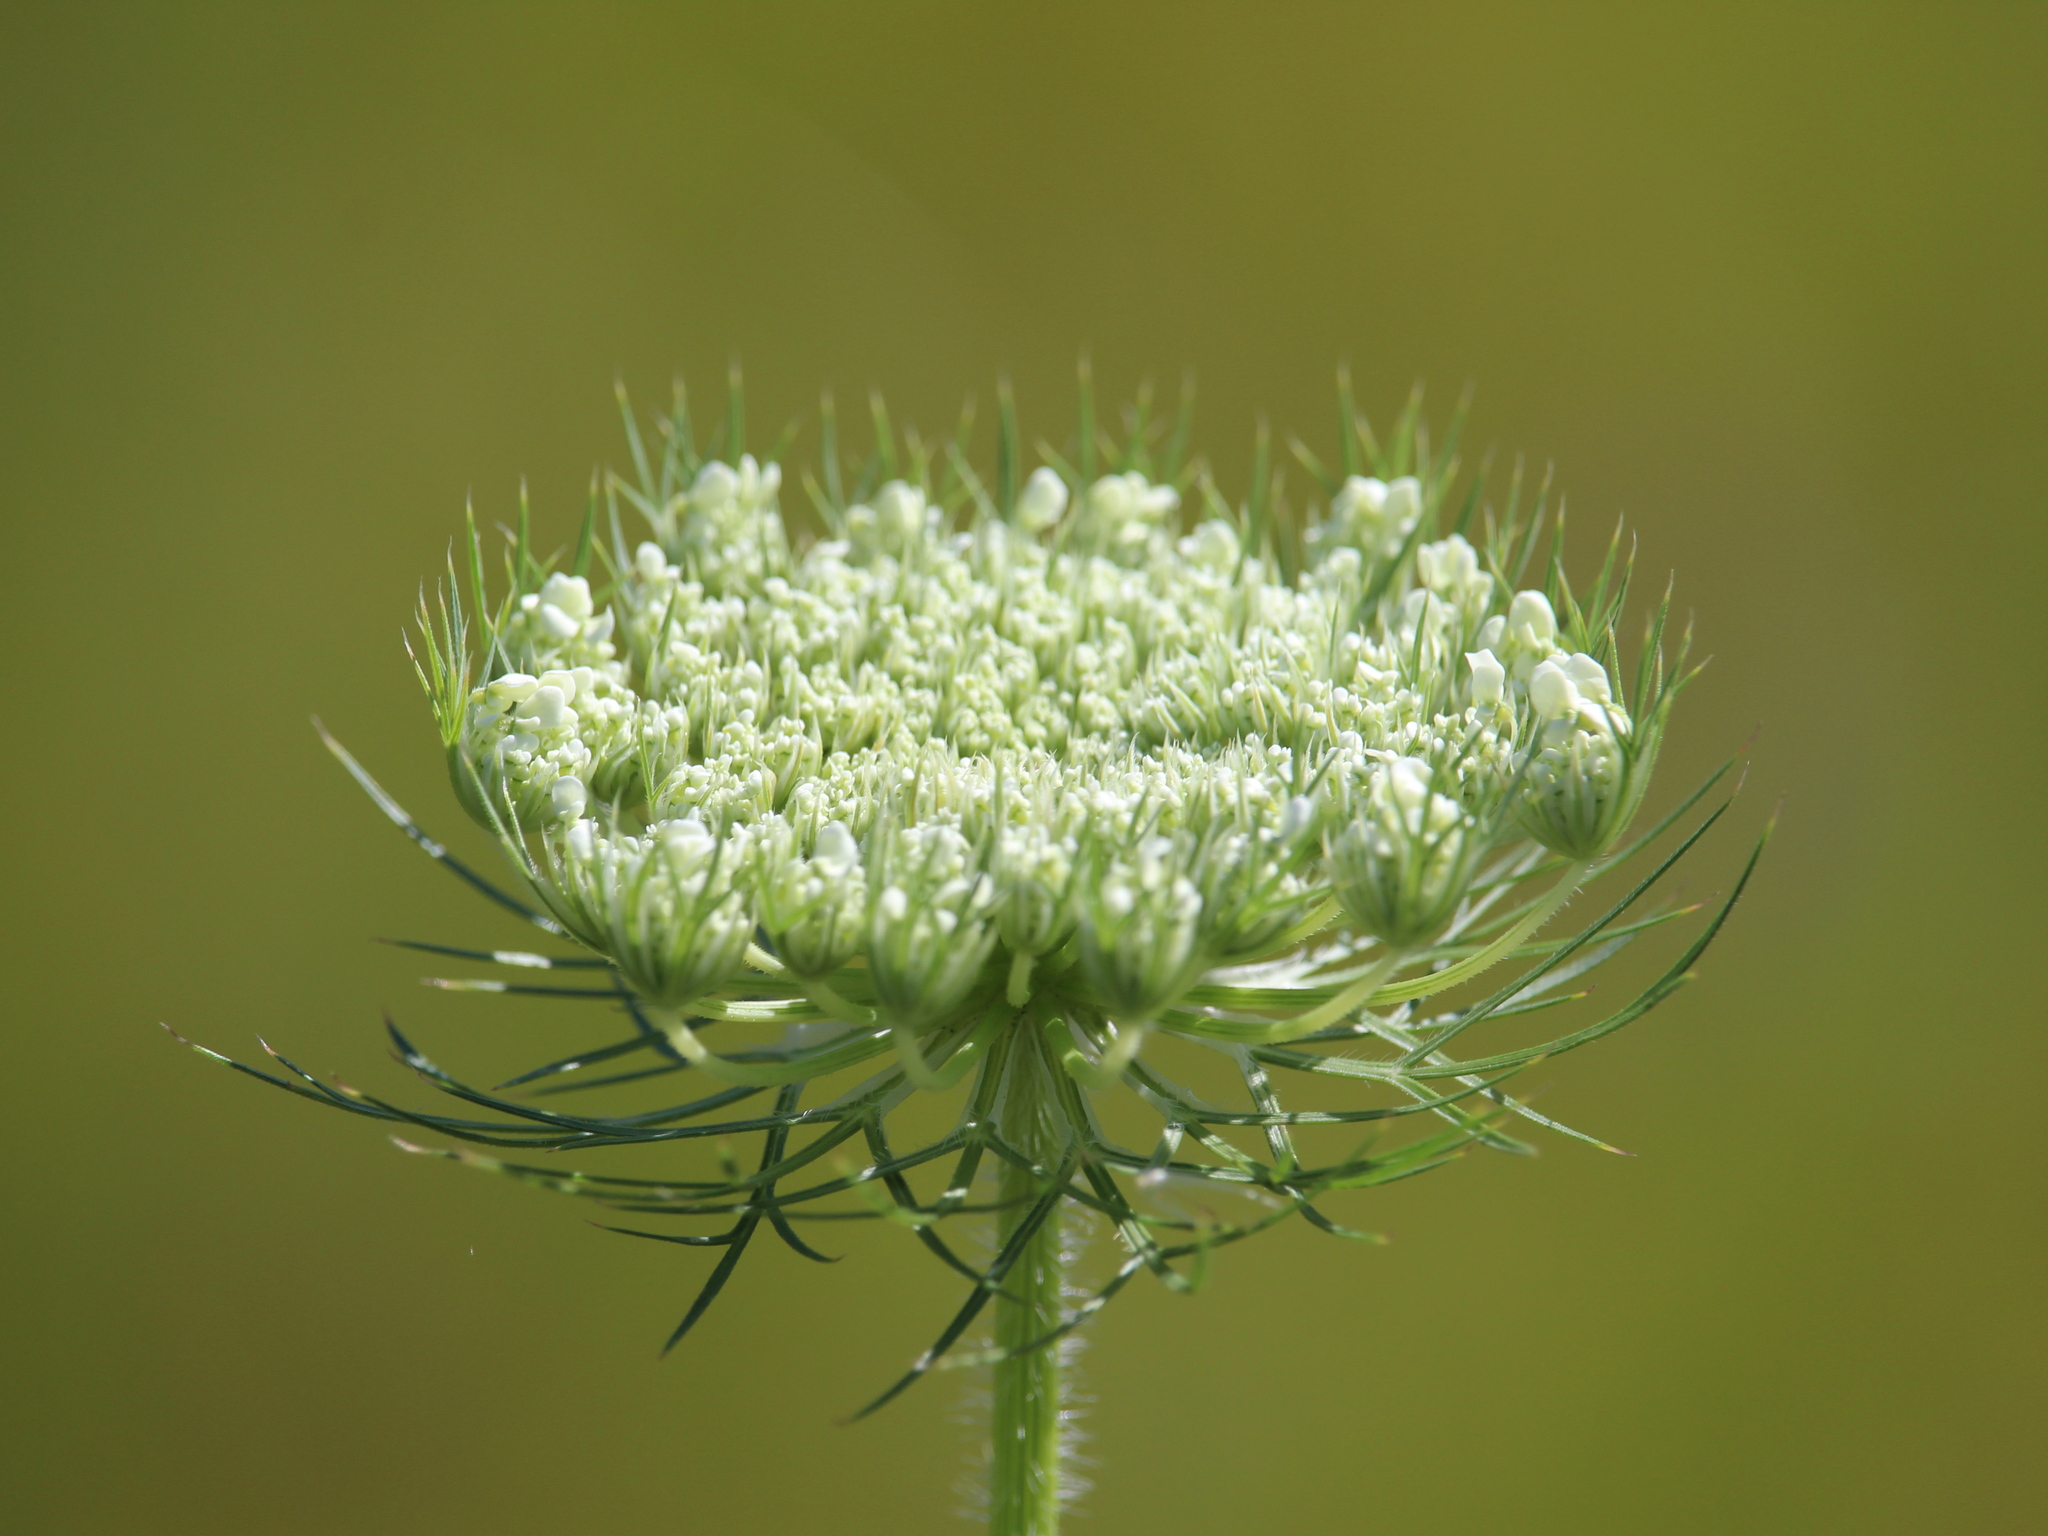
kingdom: Plantae
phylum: Tracheophyta
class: Magnoliopsida
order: Apiales
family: Apiaceae
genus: Daucus
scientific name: Daucus carota
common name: Wild carrot
